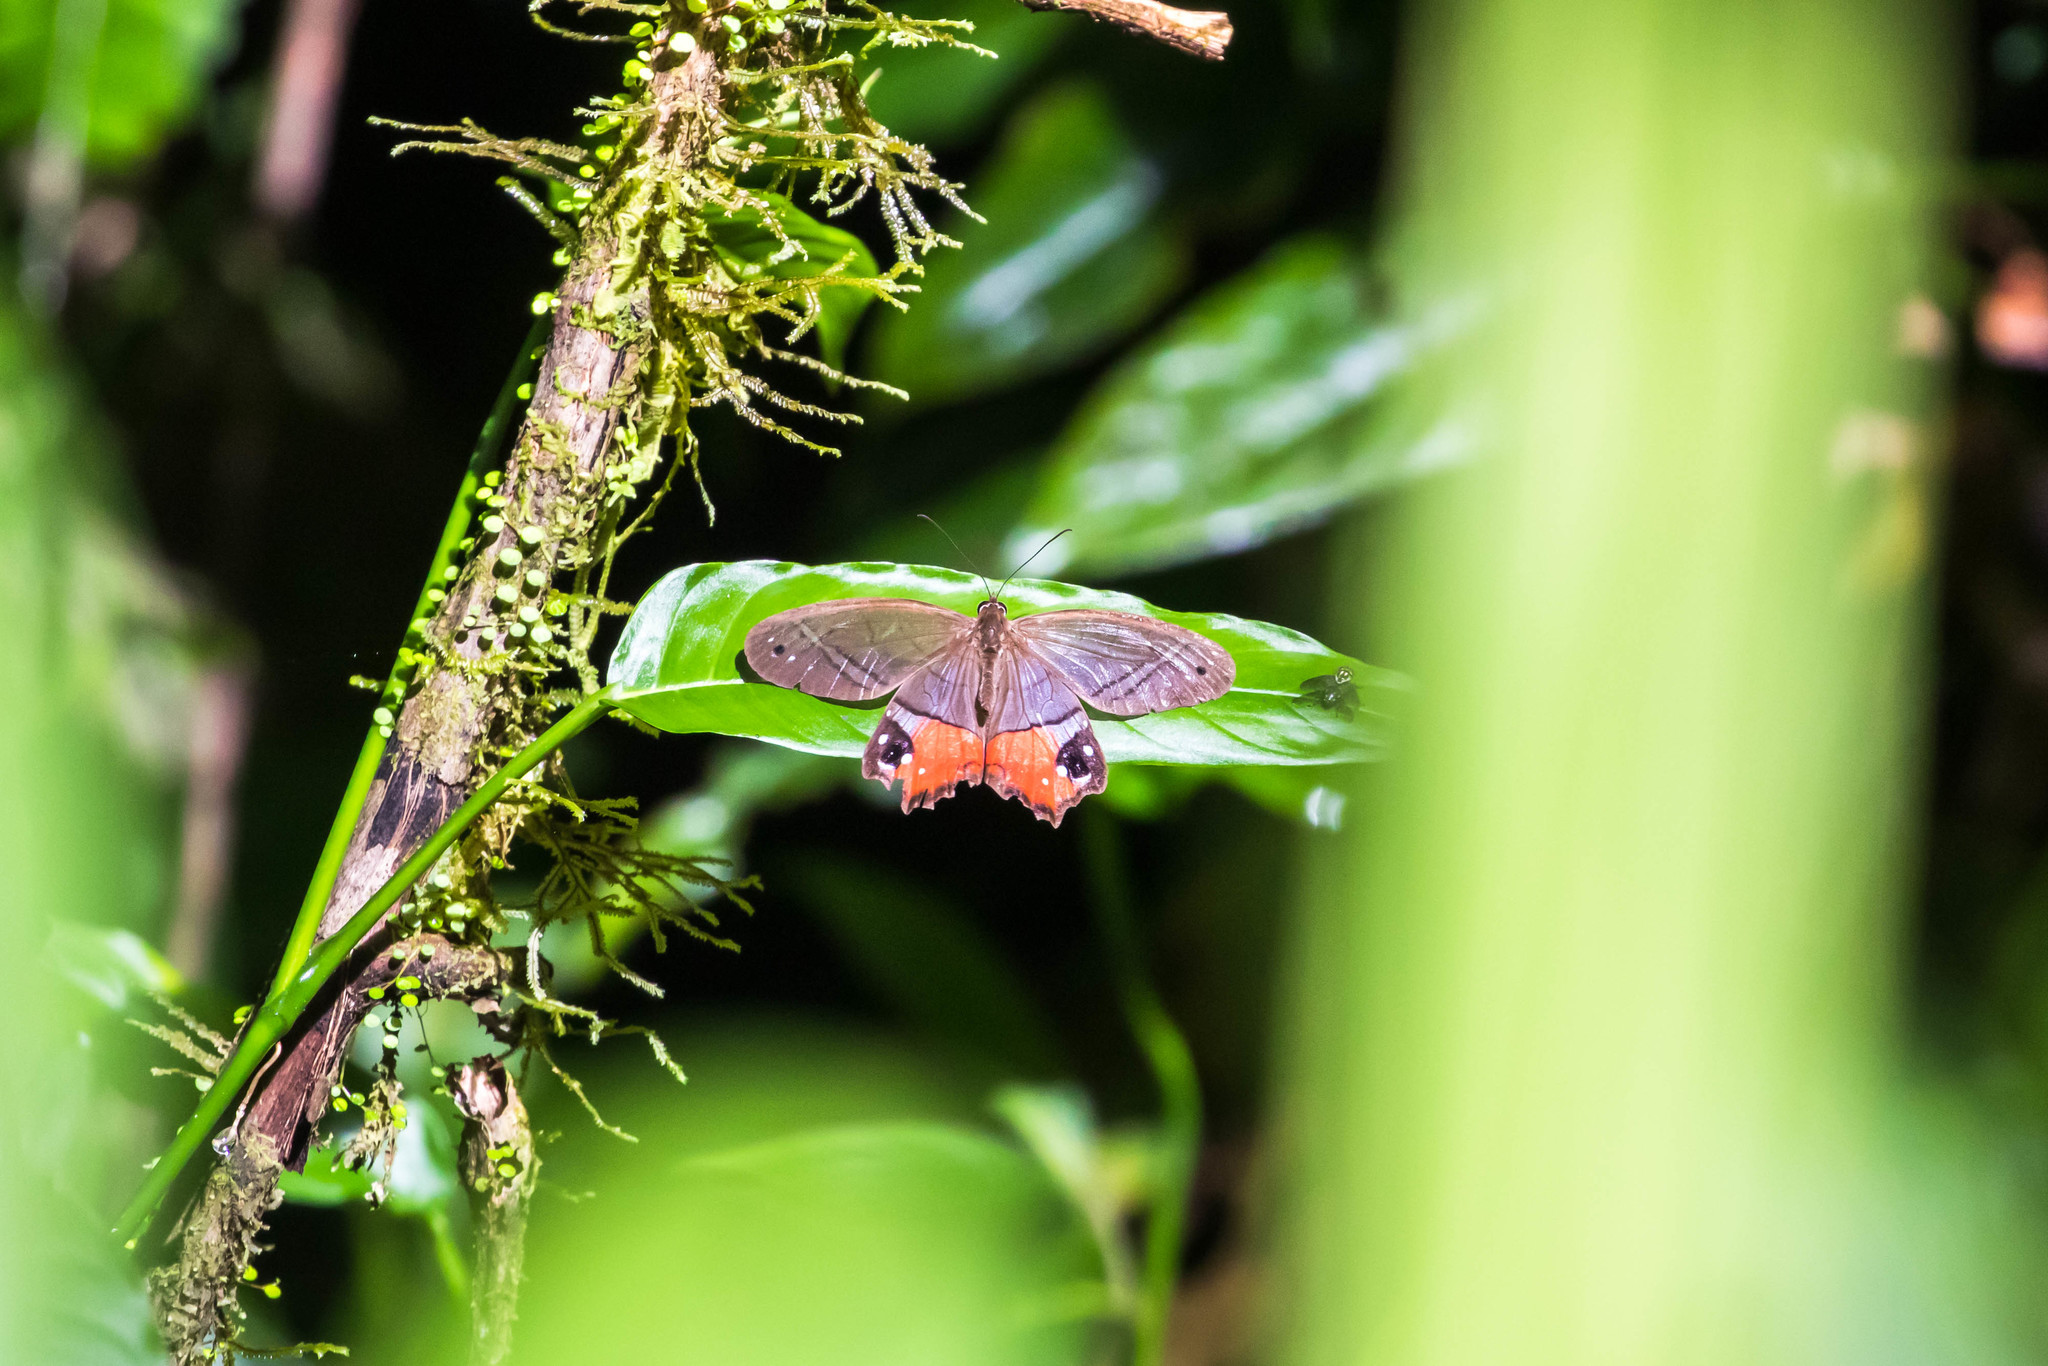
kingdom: Animalia
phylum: Arthropoda
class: Insecta
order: Lepidoptera
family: Nymphalidae
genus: Pierella
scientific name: Pierella helvina
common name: Red-washed satyr
